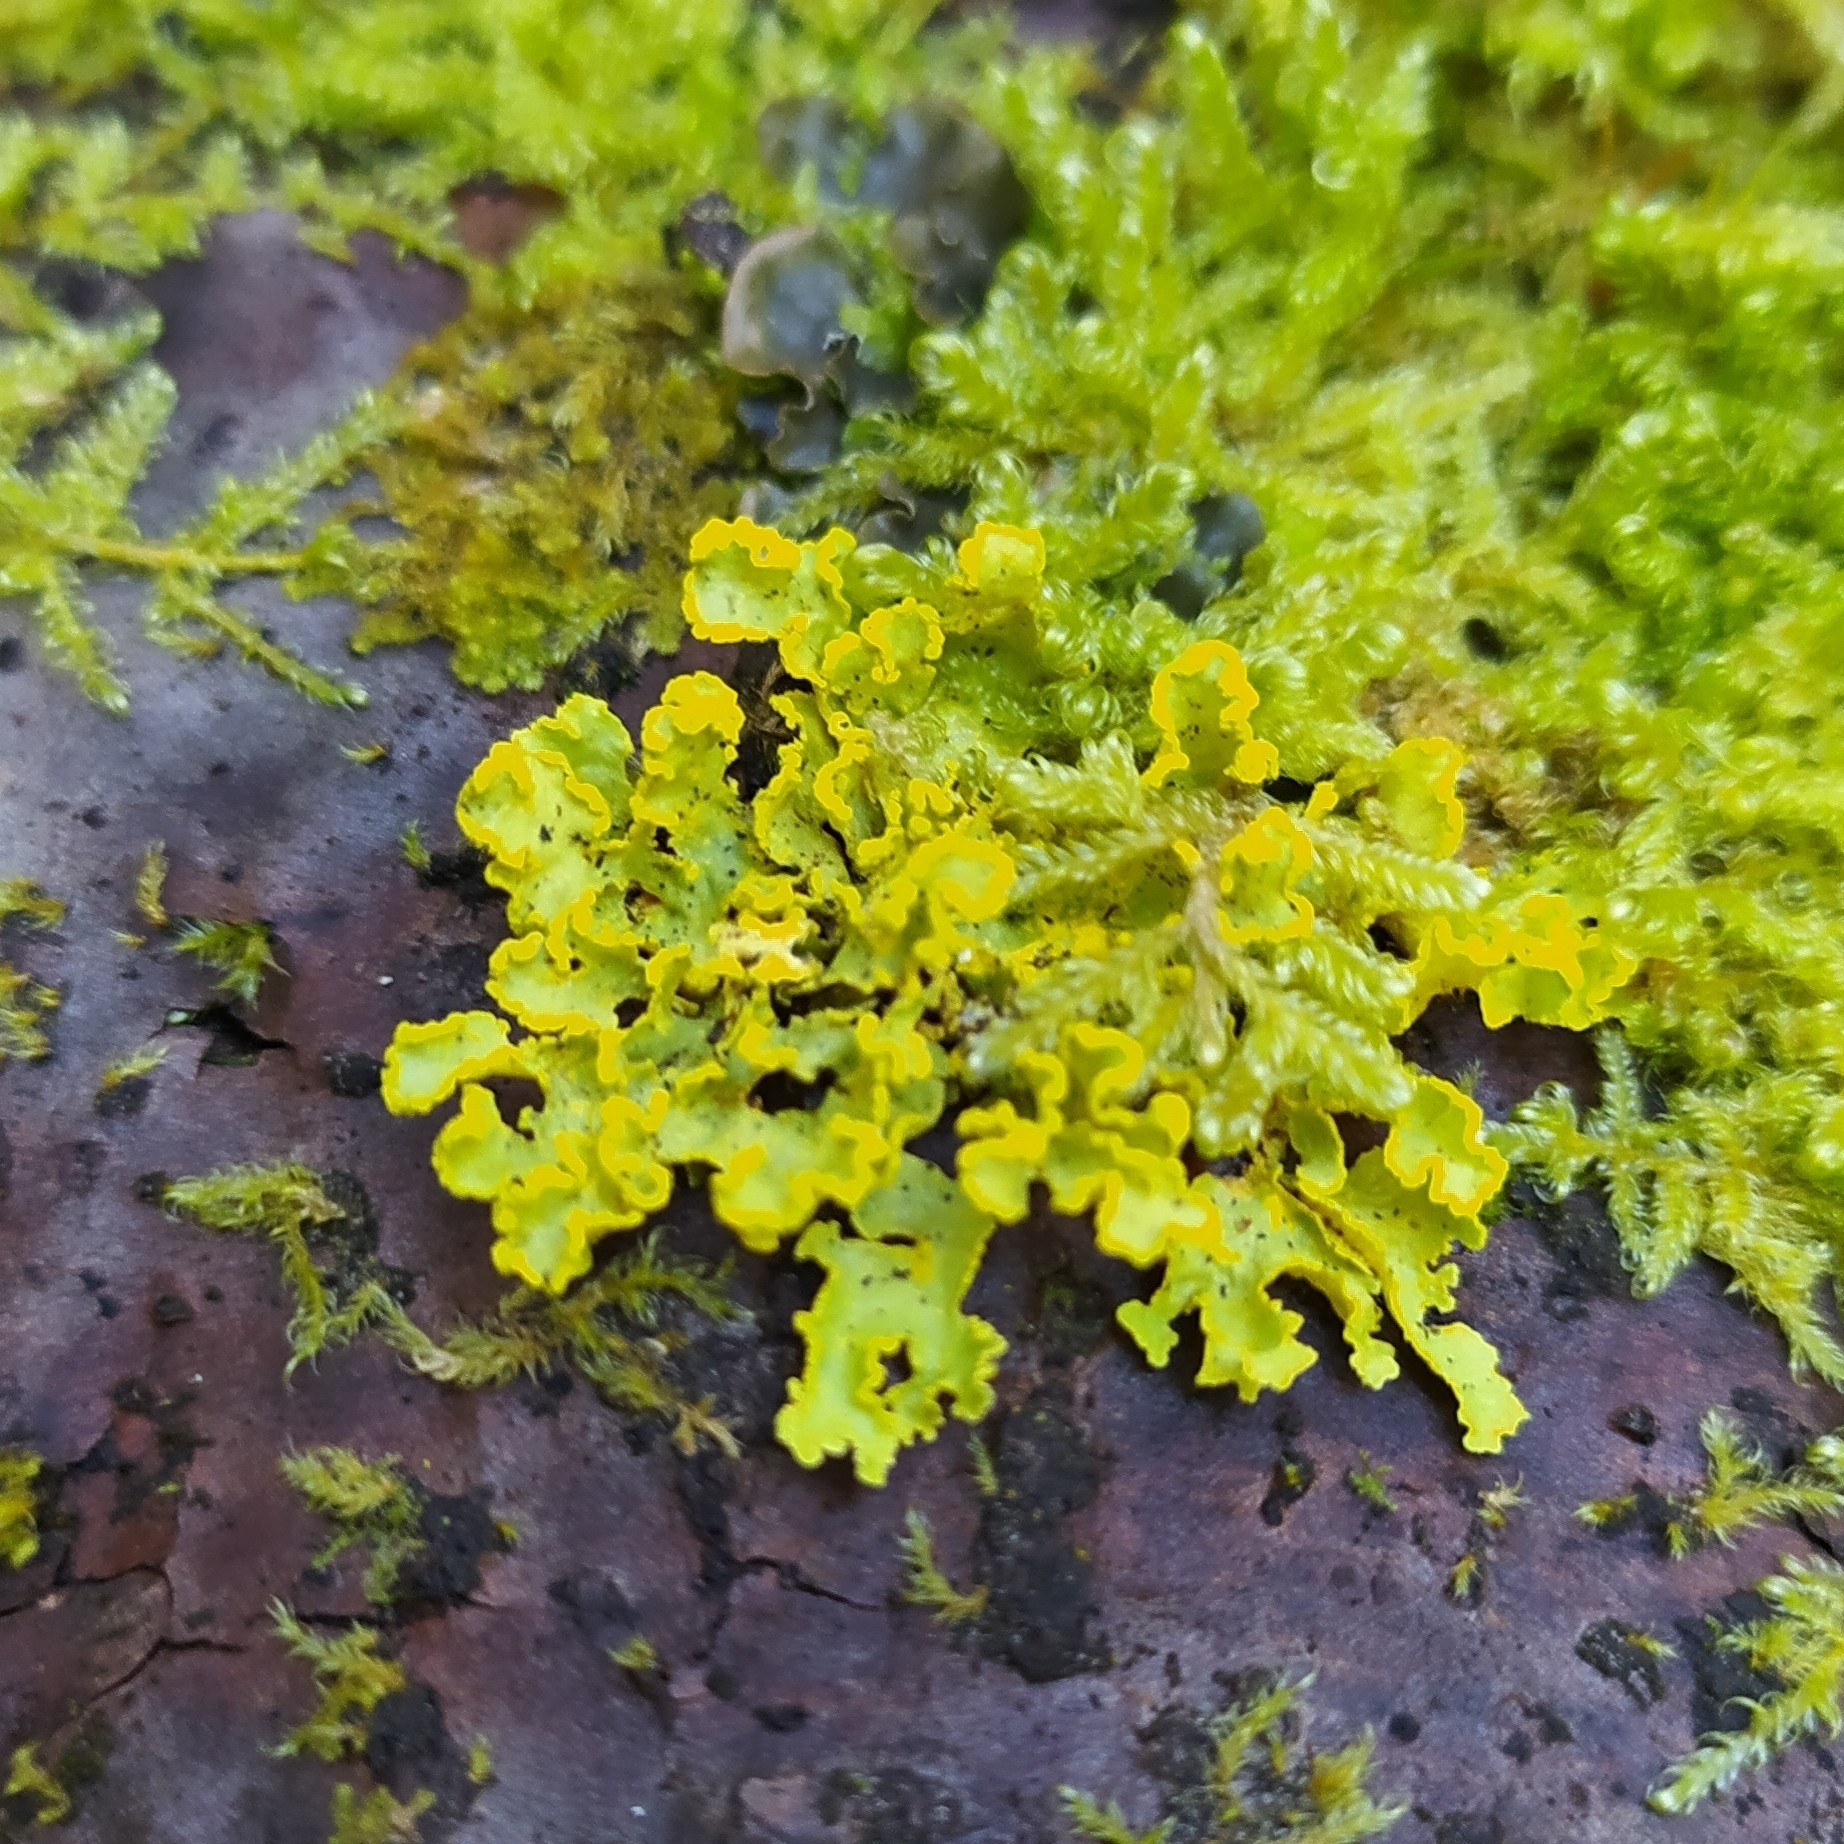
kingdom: Fungi
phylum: Ascomycota
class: Lecanoromycetes
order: Lecanorales
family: Parmeliaceae
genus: Vulpicida
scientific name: Vulpicida pinastri
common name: Powdered sunshine lichen
